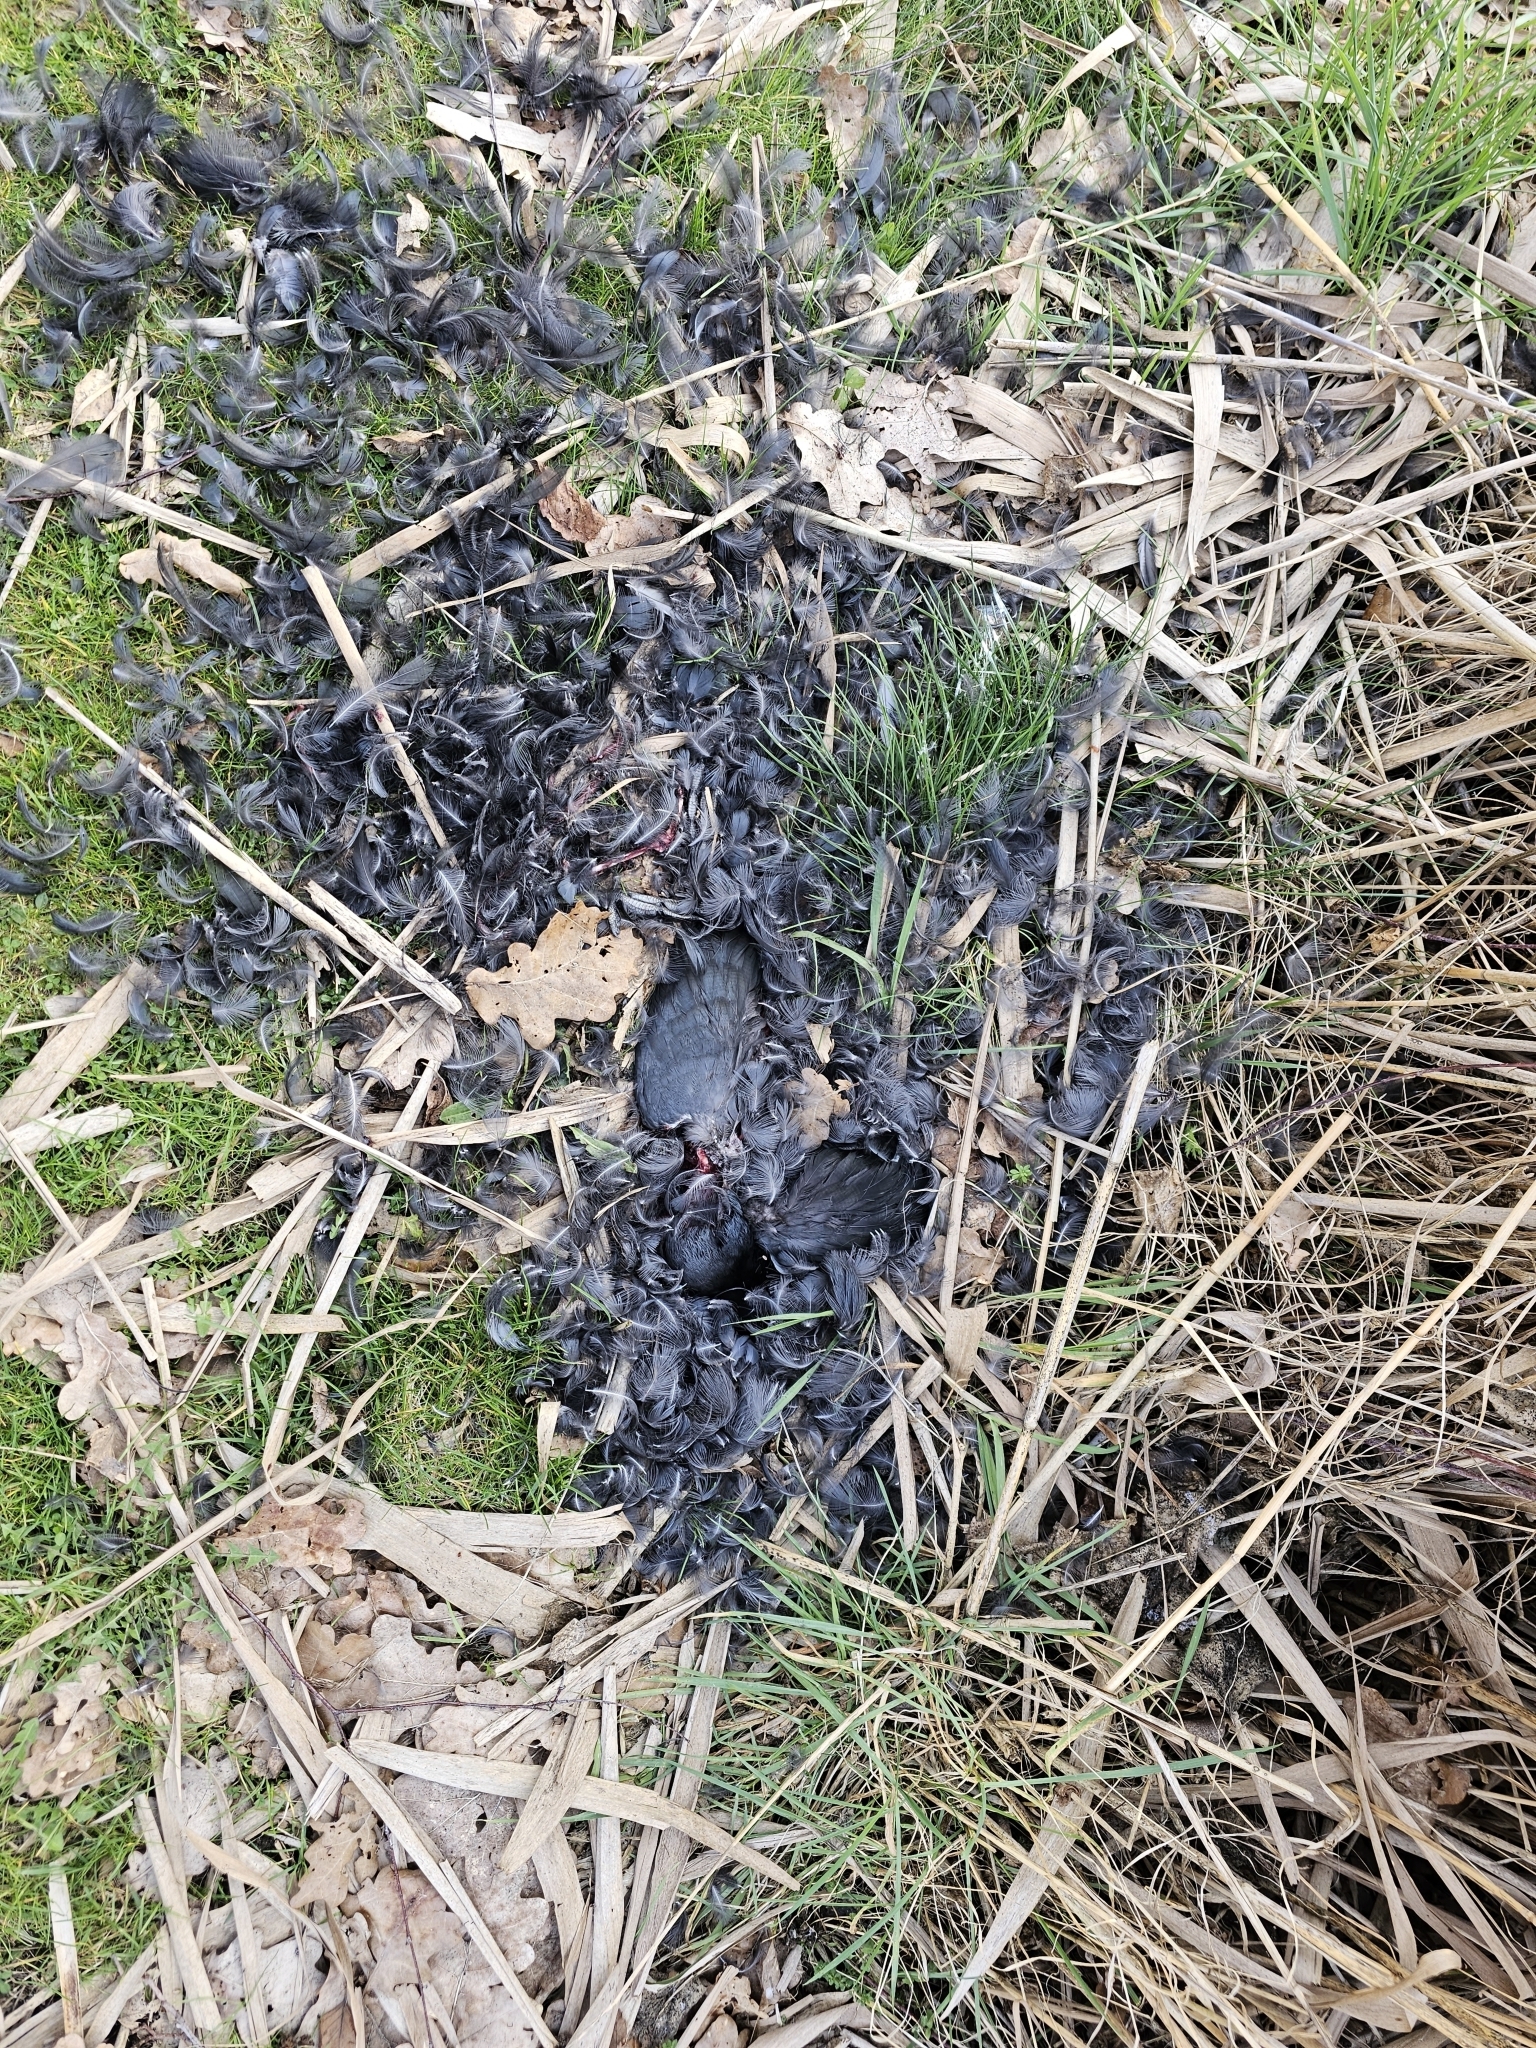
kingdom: Animalia
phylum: Chordata
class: Aves
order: Gruiformes
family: Rallidae
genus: Fulica
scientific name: Fulica atra
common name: Eurasian coot
